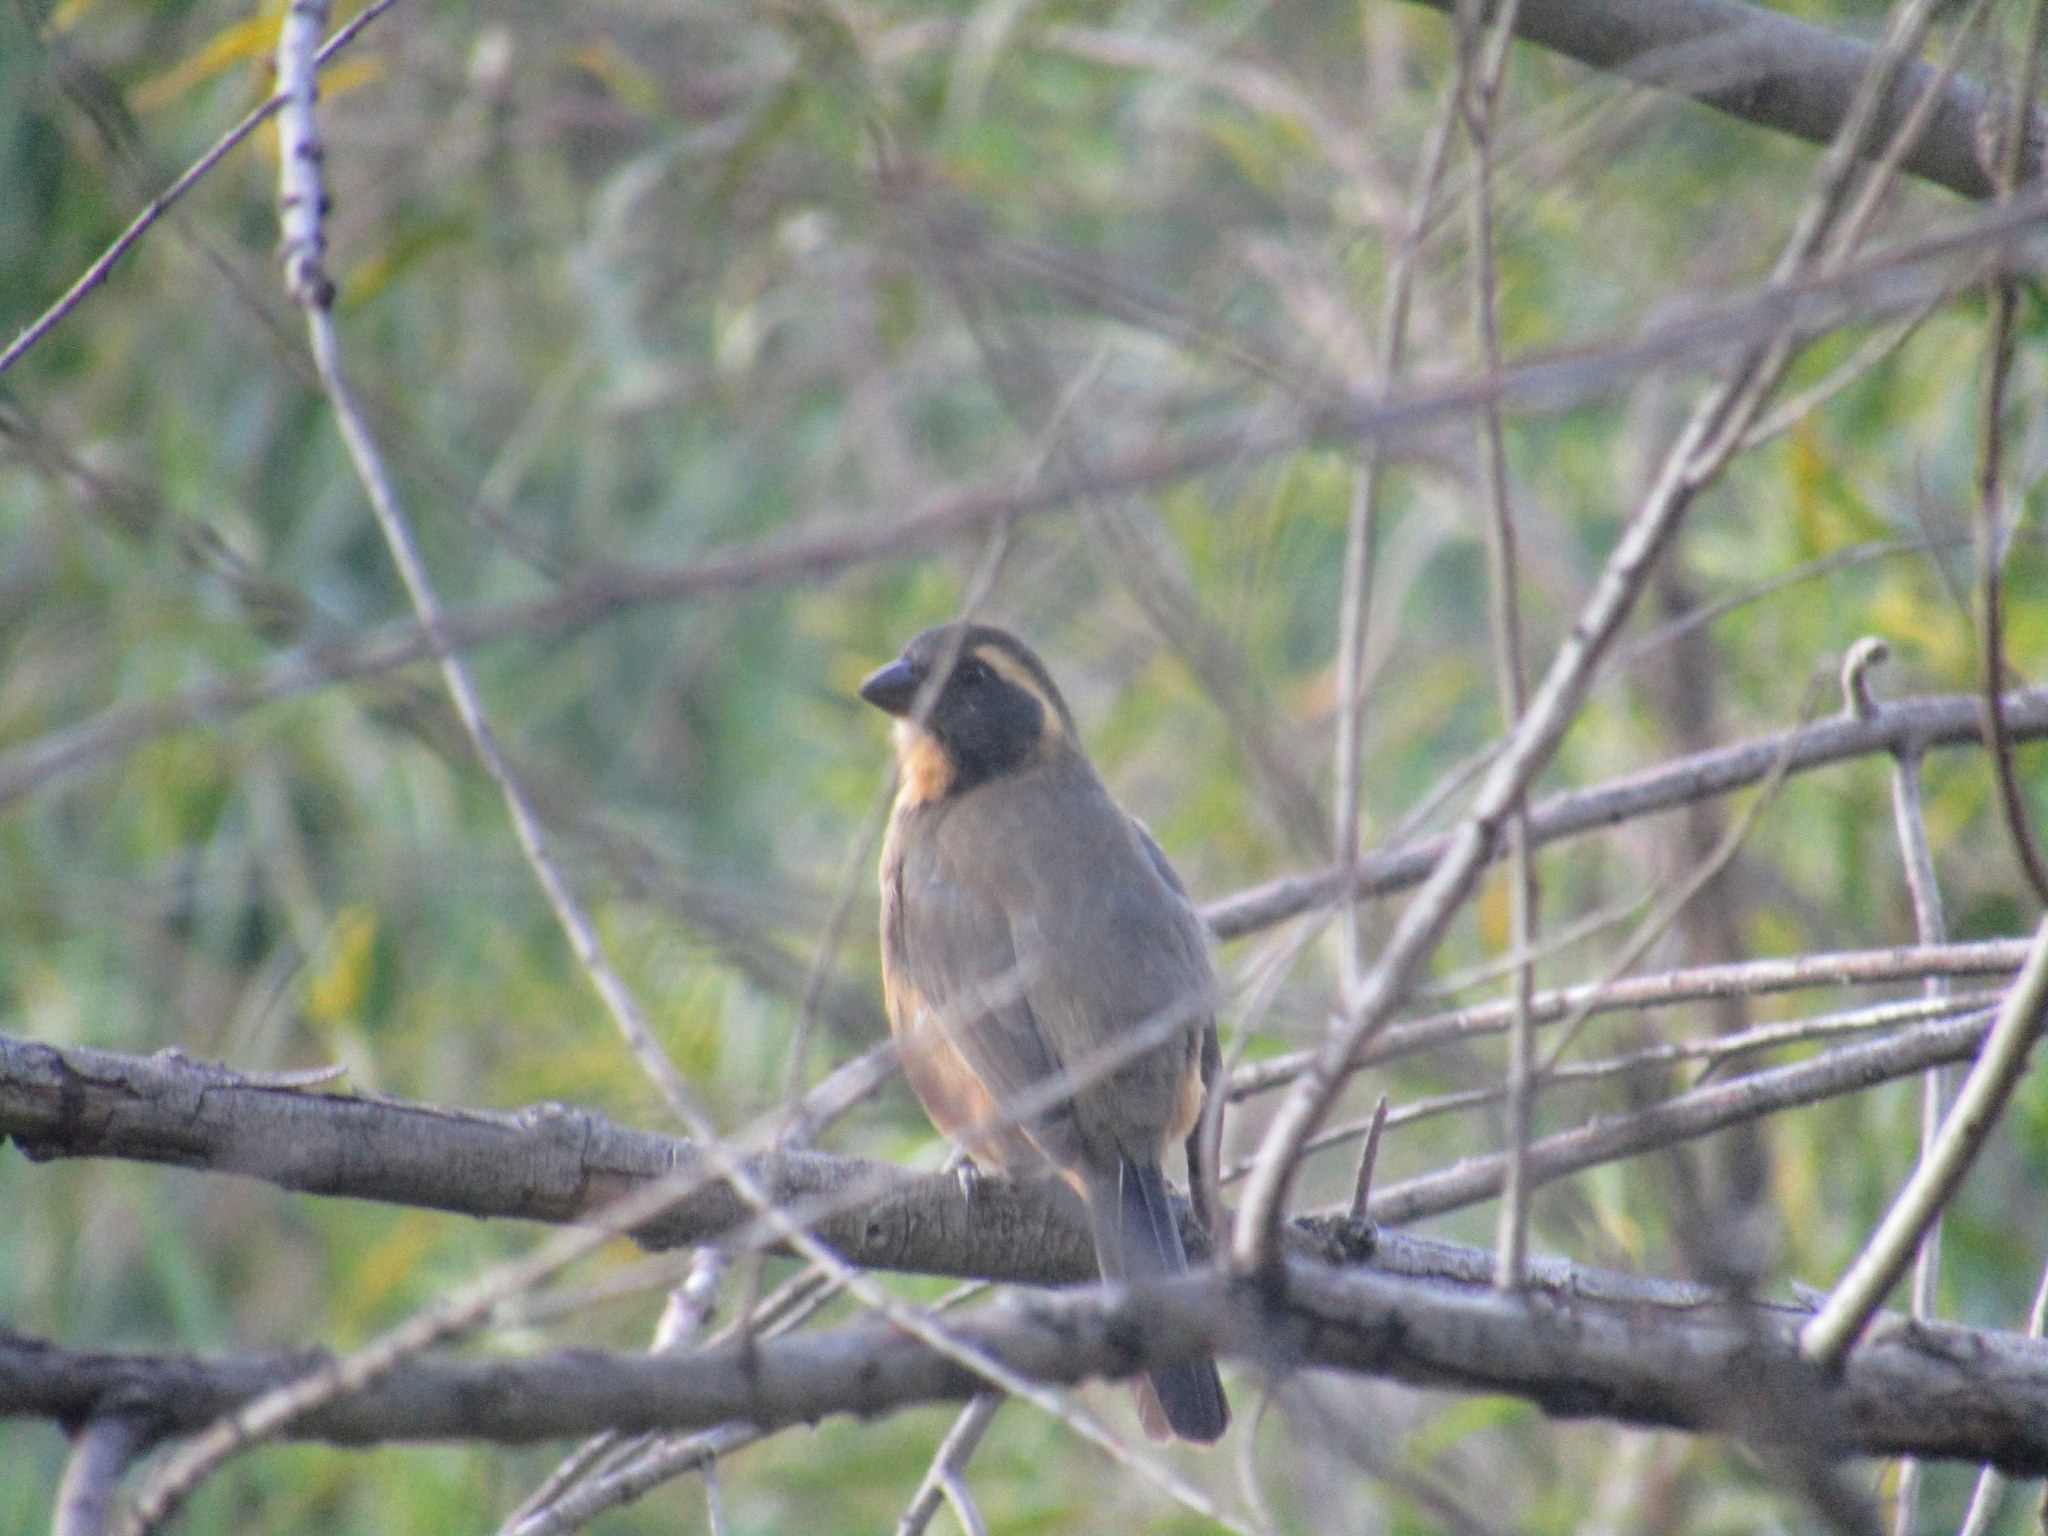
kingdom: Animalia
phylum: Chordata
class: Aves
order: Passeriformes
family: Thraupidae
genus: Saltator
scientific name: Saltator aurantiirostris
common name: Golden-billed saltator
